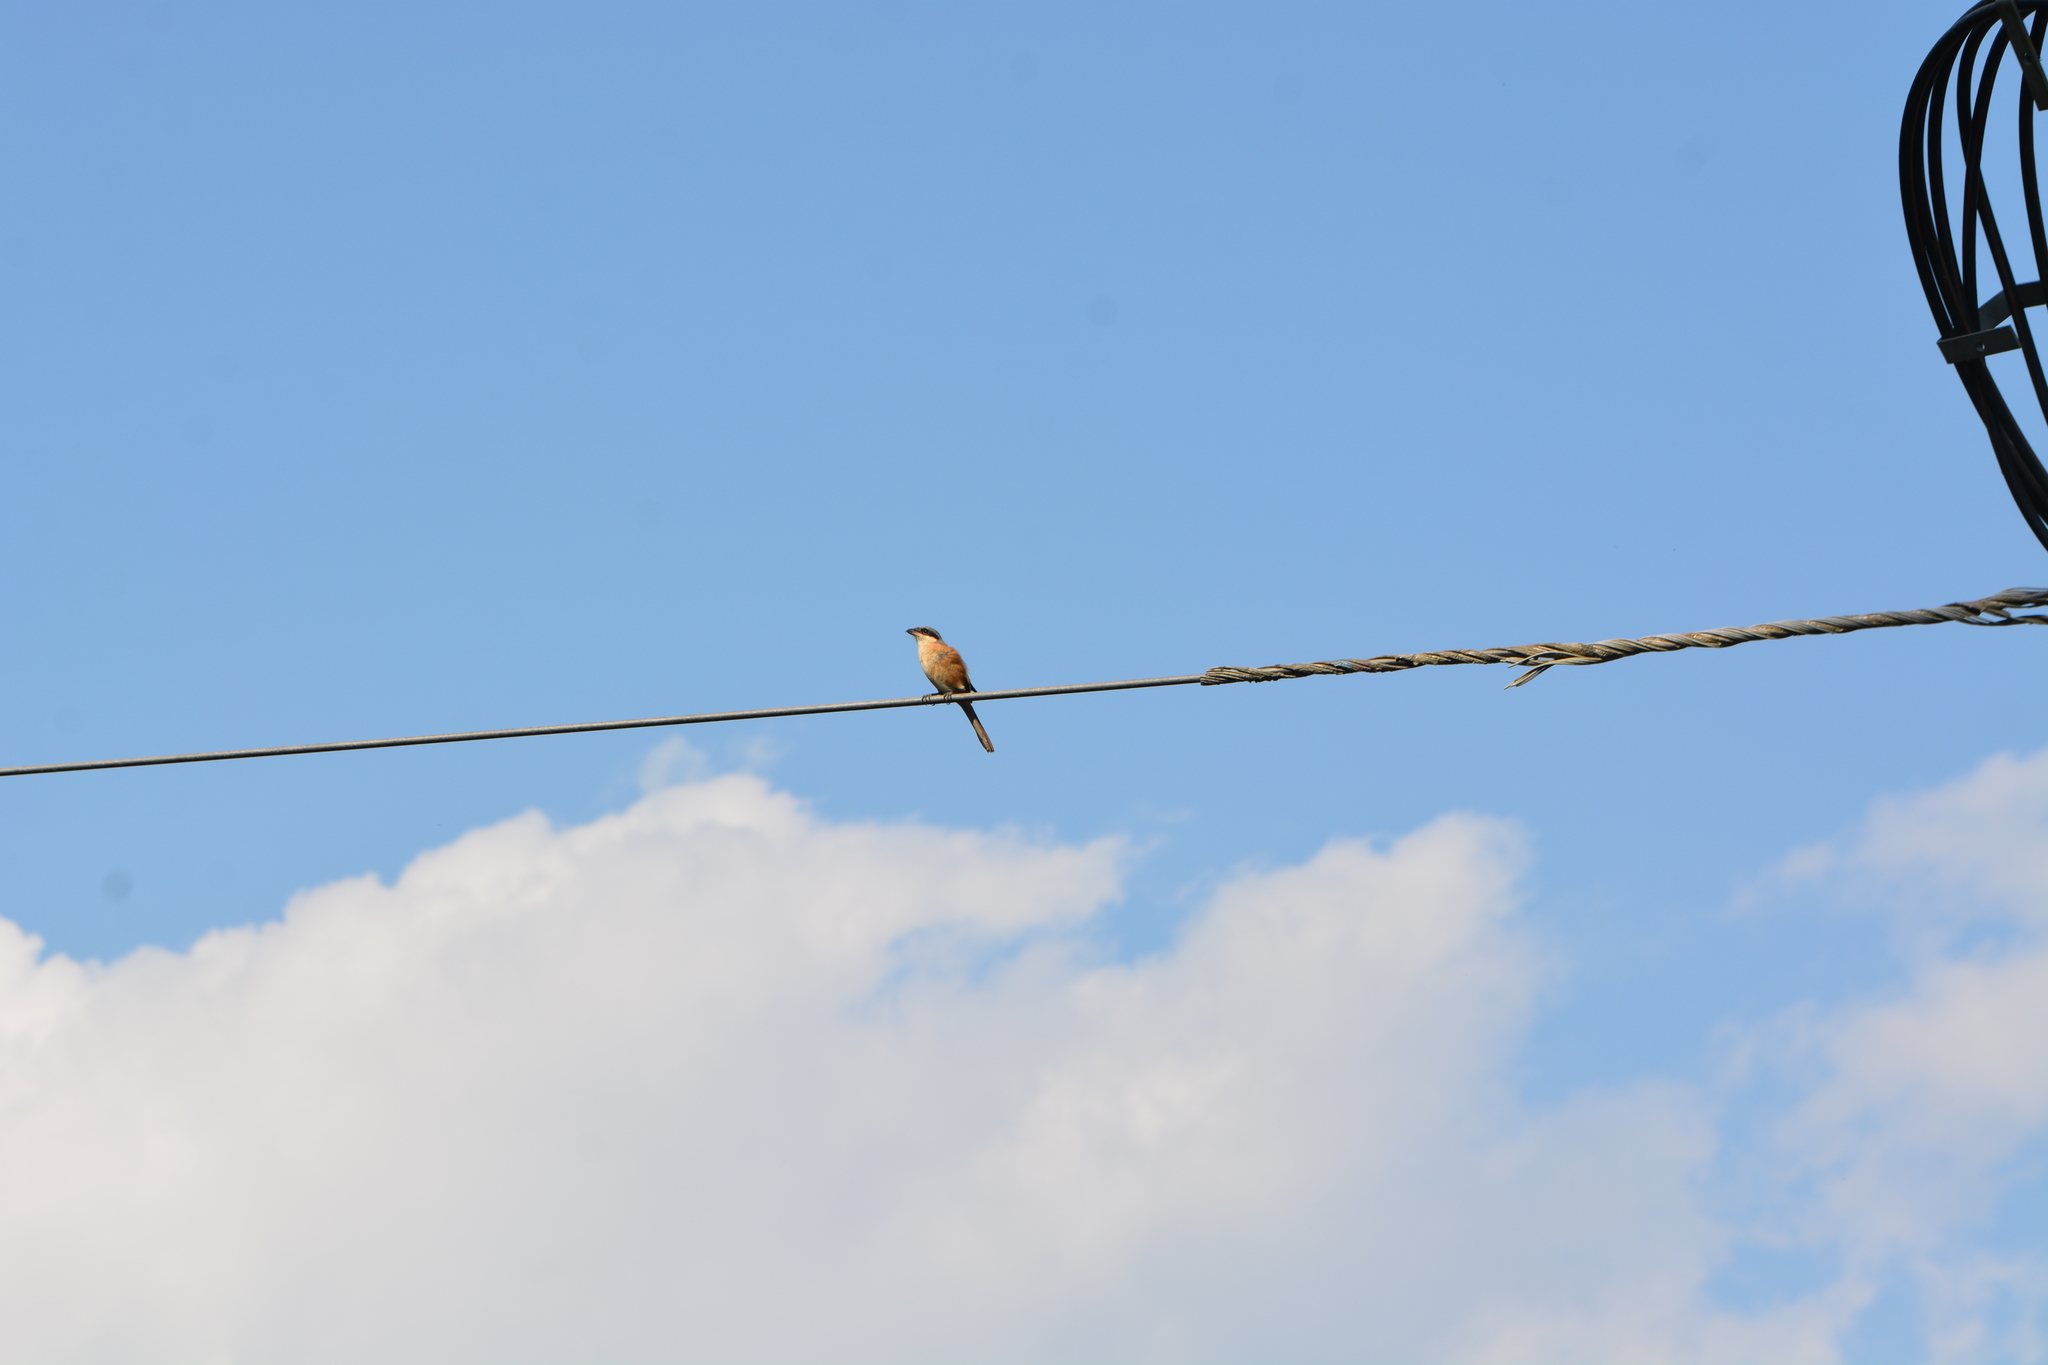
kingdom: Animalia
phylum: Chordata
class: Aves
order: Passeriformes
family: Laniidae
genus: Lanius
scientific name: Lanius tephronotus
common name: Grey-backed shrike
